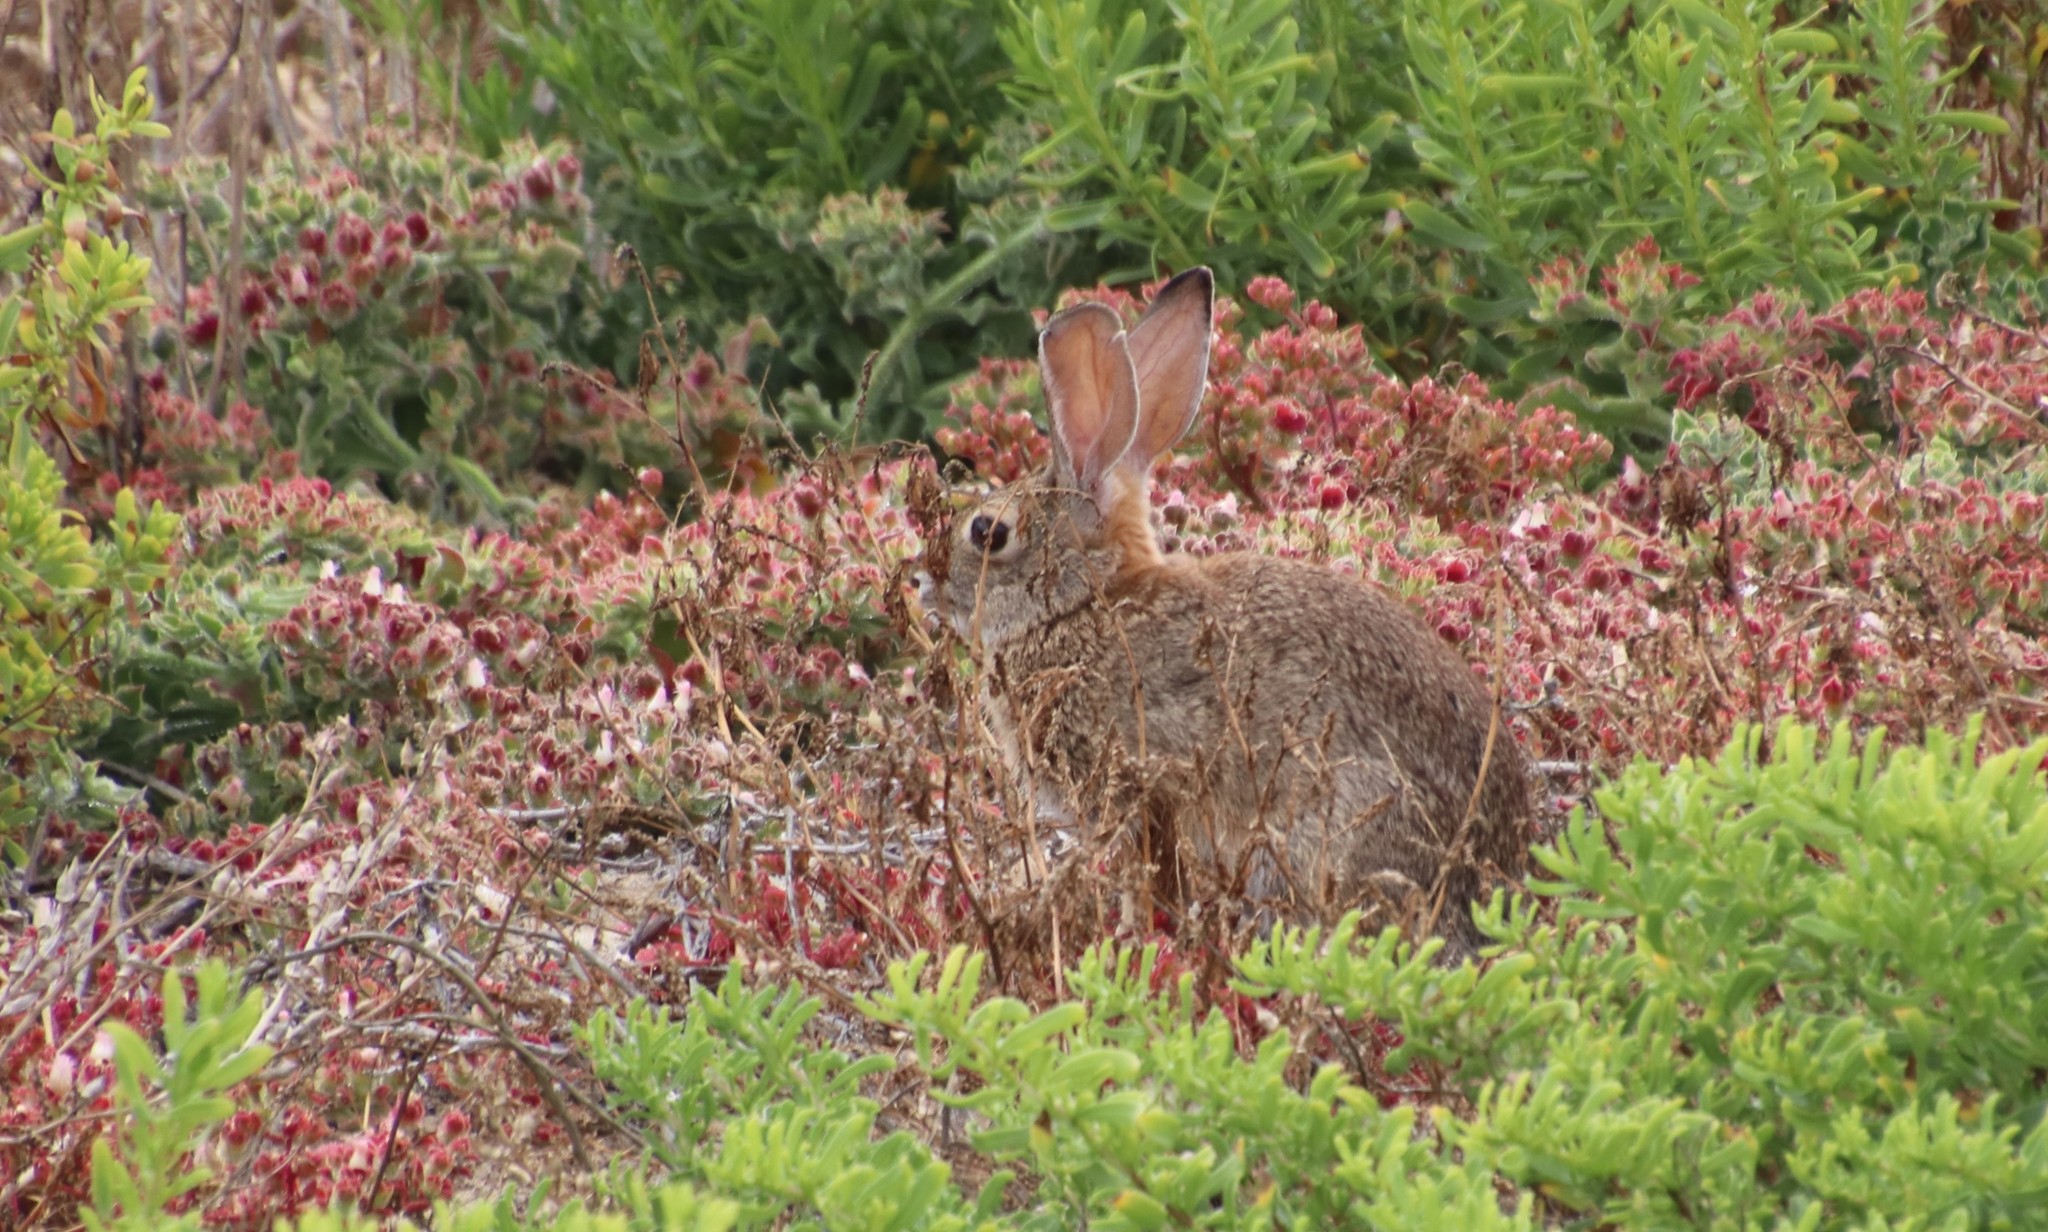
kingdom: Animalia
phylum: Chordata
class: Mammalia
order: Lagomorpha
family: Leporidae
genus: Sylvilagus
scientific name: Sylvilagus audubonii
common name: Desert cottontail
